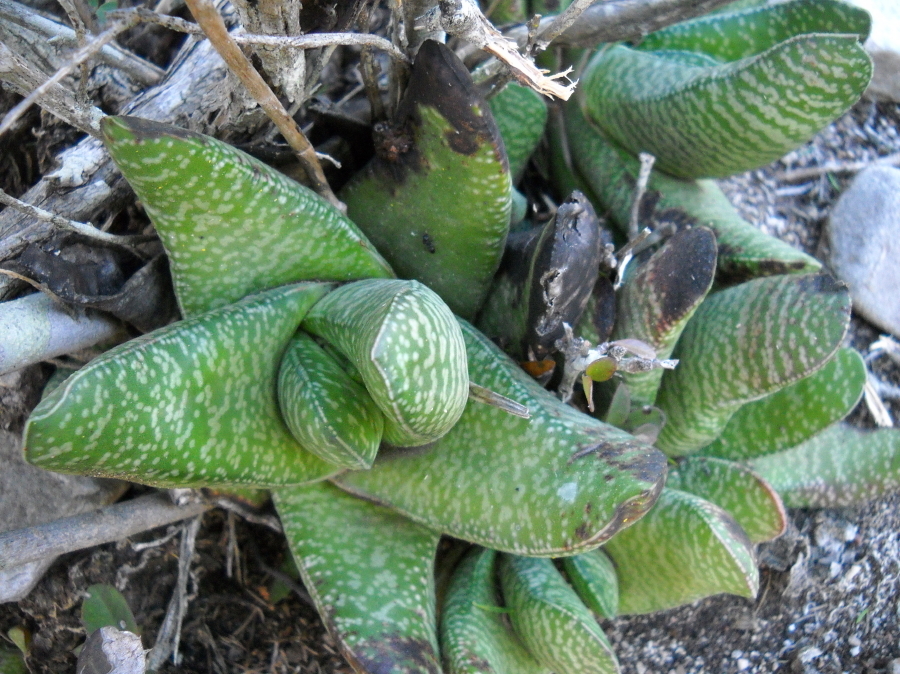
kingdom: Plantae
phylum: Tracheophyta
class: Liliopsida
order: Asparagales
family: Asphodelaceae
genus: Gasteria
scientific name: Gasteria carinata
